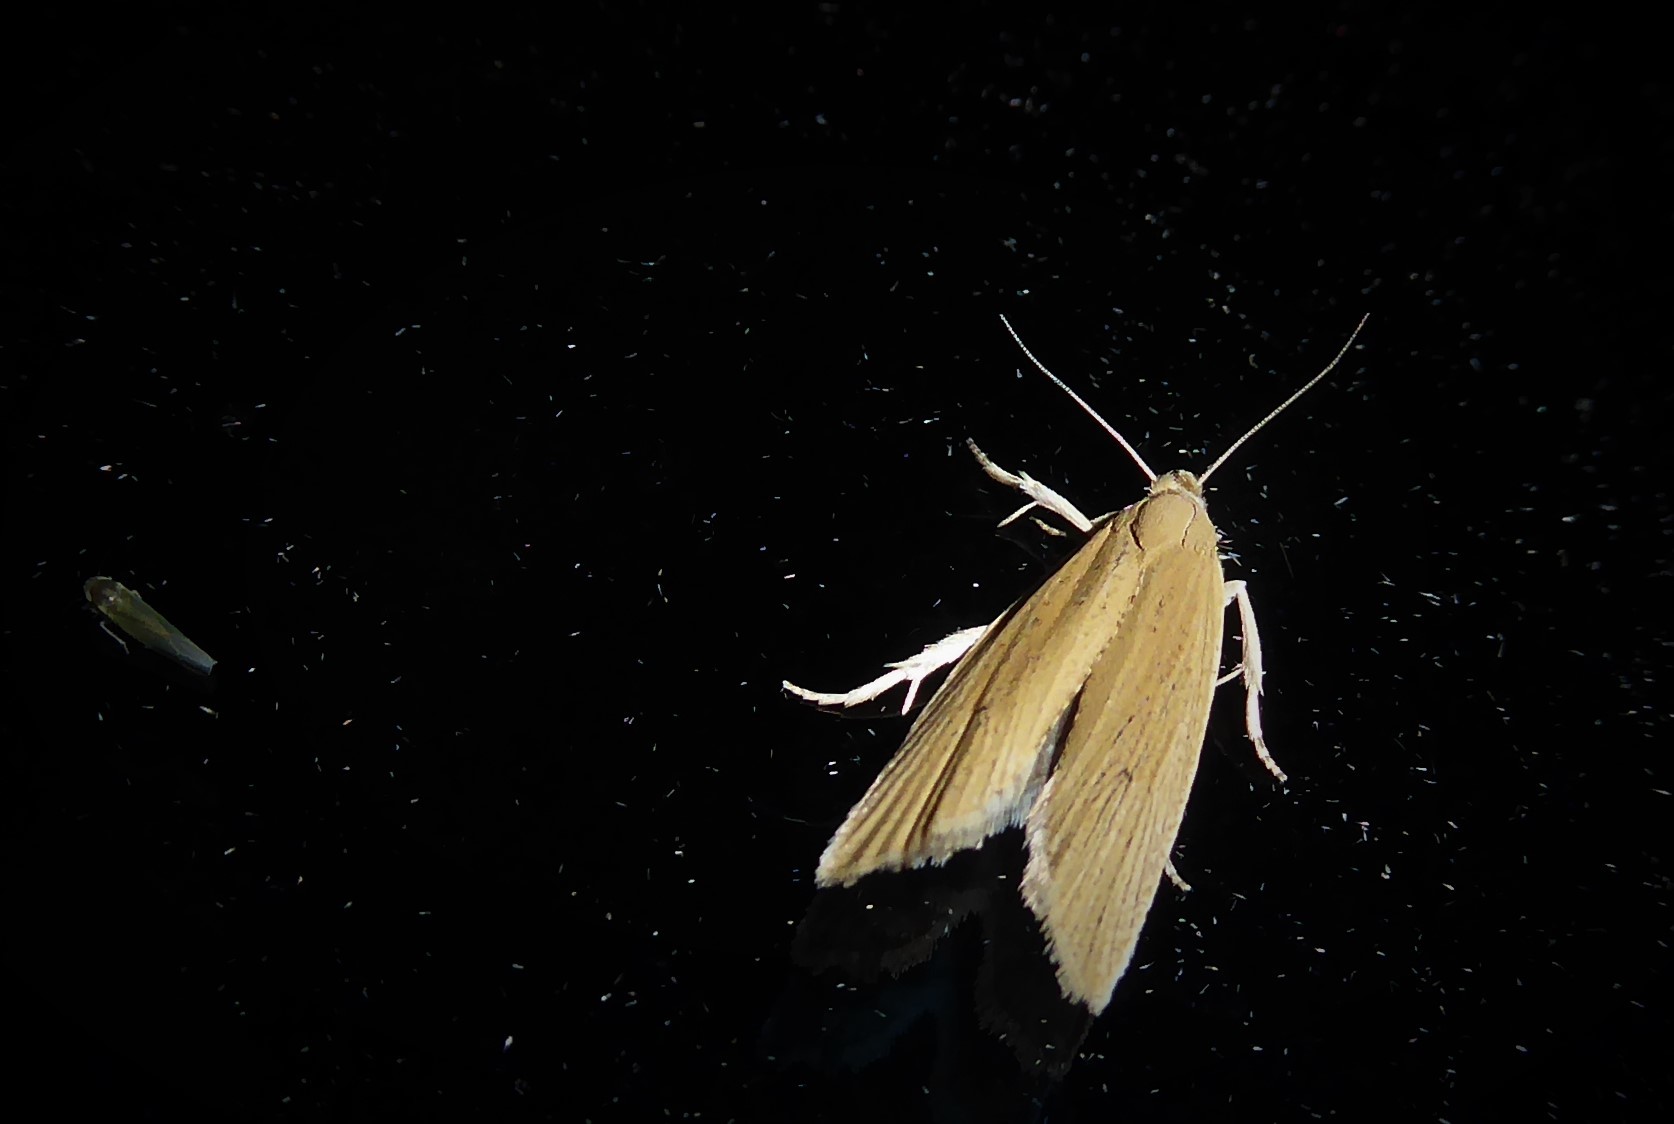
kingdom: Animalia
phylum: Arthropoda
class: Insecta
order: Lepidoptera
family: Tortricidae
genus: Bactra
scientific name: Bactra noteraula
